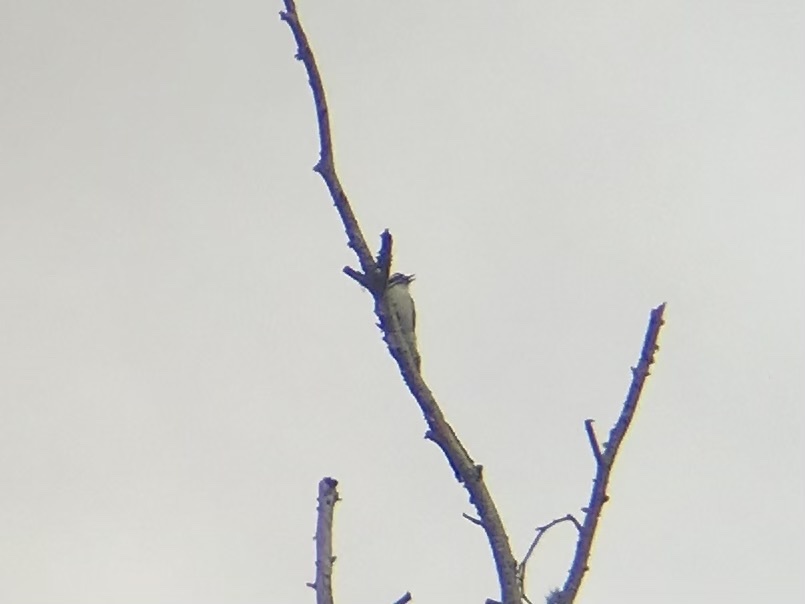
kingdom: Animalia
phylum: Chordata
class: Aves
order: Piciformes
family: Picidae
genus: Dryobates
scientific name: Dryobates pubescens
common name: Downy woodpecker
